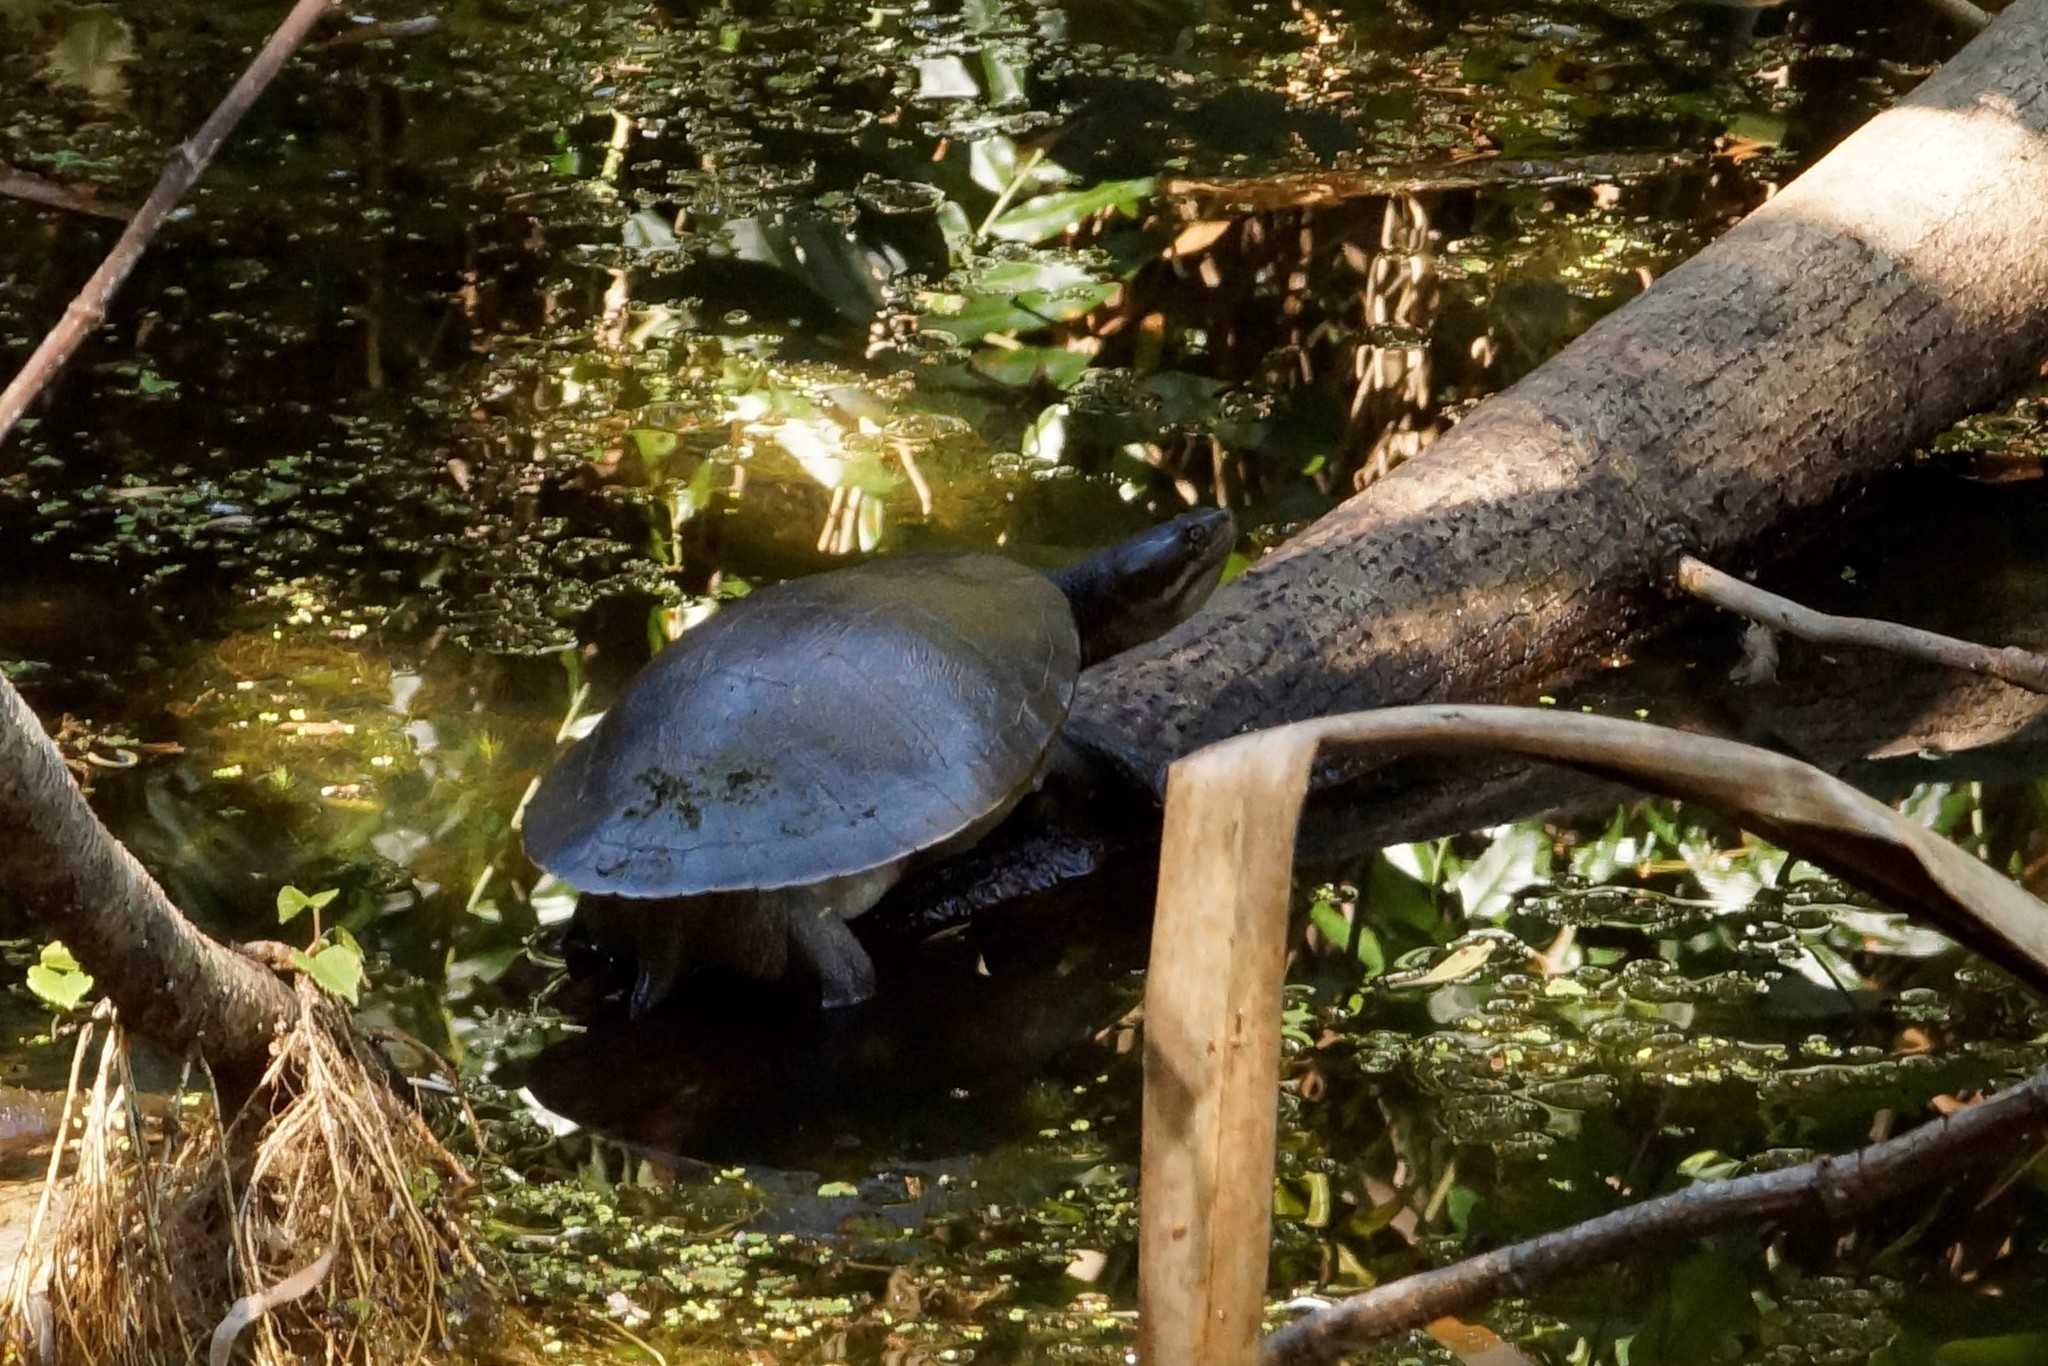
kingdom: Animalia
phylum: Chordata
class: Testudines
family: Chelidae
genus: Emydura
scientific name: Emydura macquarii
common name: Murray river turtle
